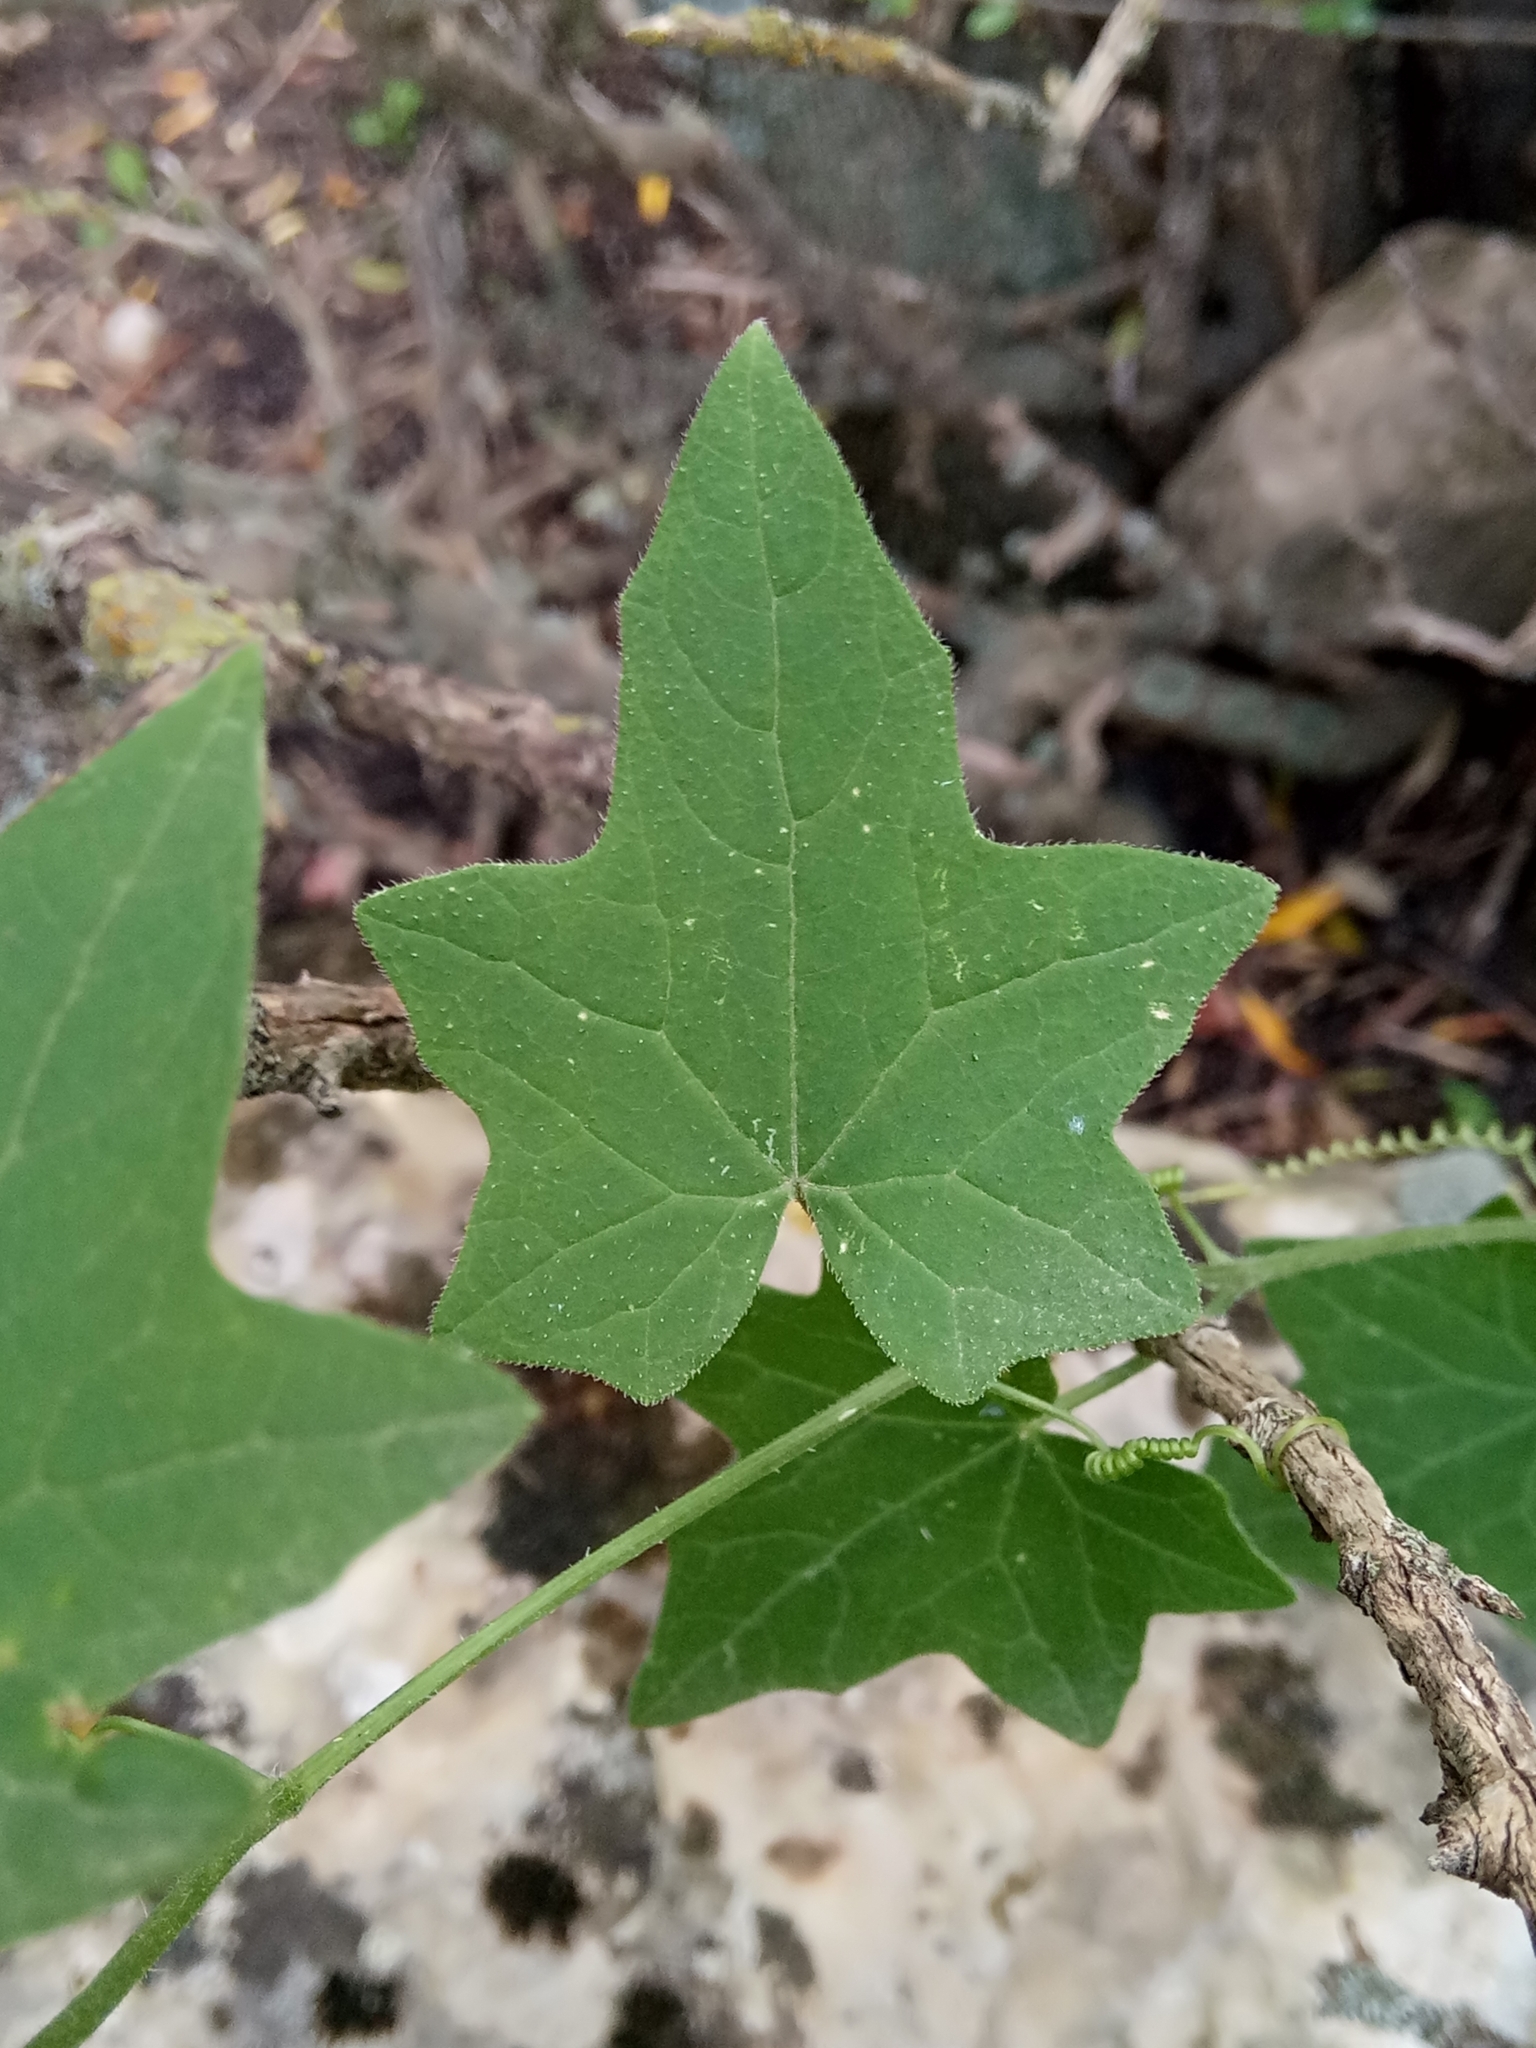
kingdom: Plantae
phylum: Tracheophyta
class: Magnoliopsida
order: Cucurbitales
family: Cucurbitaceae
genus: Bryonia
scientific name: Bryonia dioica
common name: White bryony
